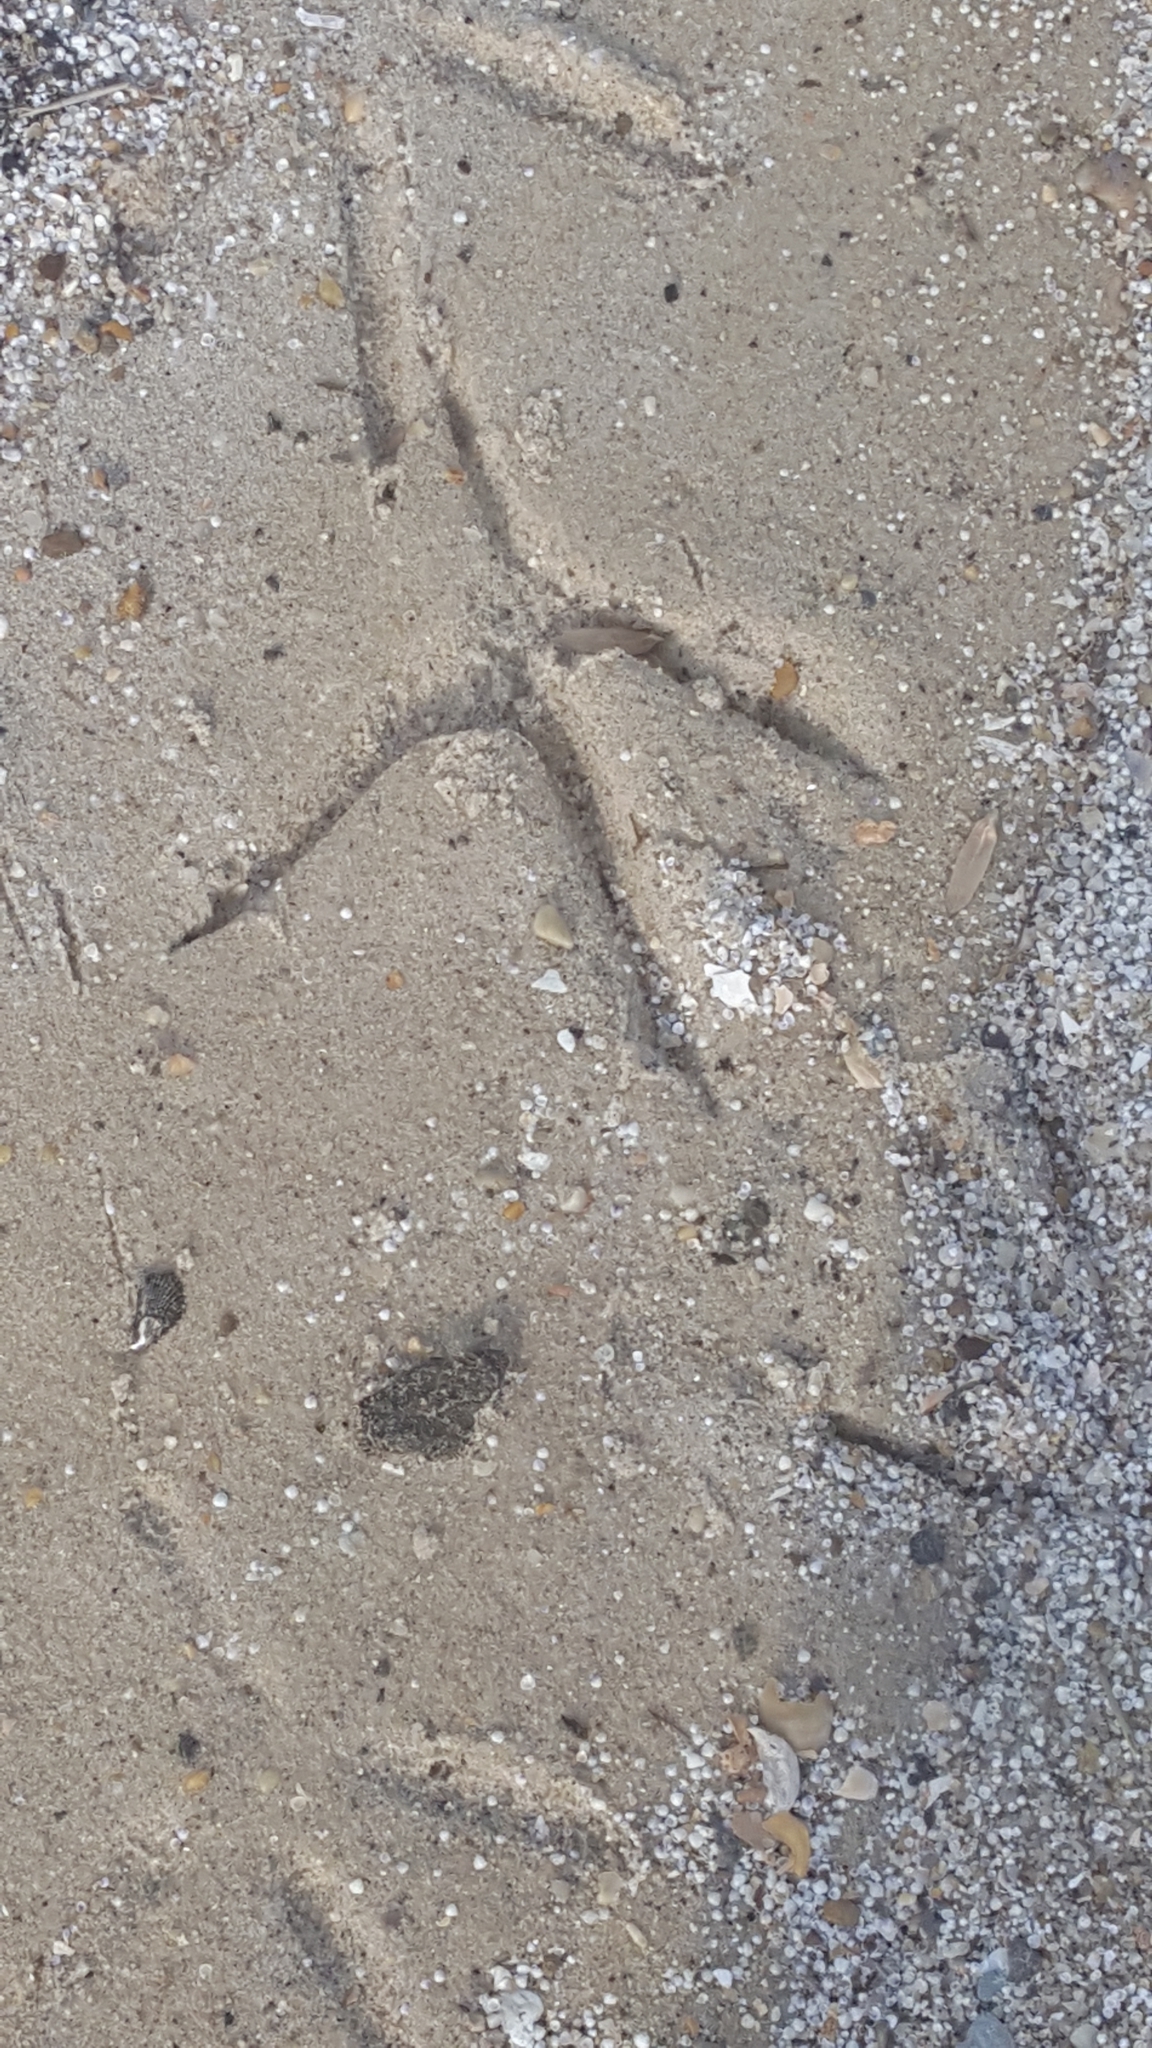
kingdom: Animalia
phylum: Chordata
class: Aves
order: Pelecaniformes
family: Ardeidae
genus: Ardea
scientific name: Ardea herodias
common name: Great blue heron
